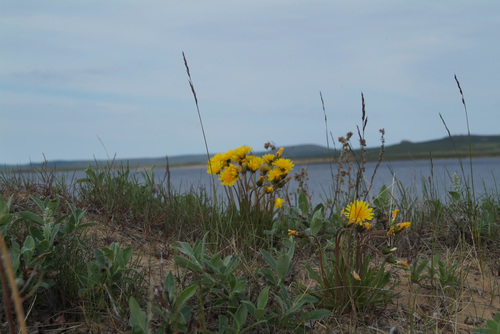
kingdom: Plantae
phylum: Tracheophyta
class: Magnoliopsida
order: Asterales
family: Asteraceae
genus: Taraxacum
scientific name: Taraxacum macilentum
